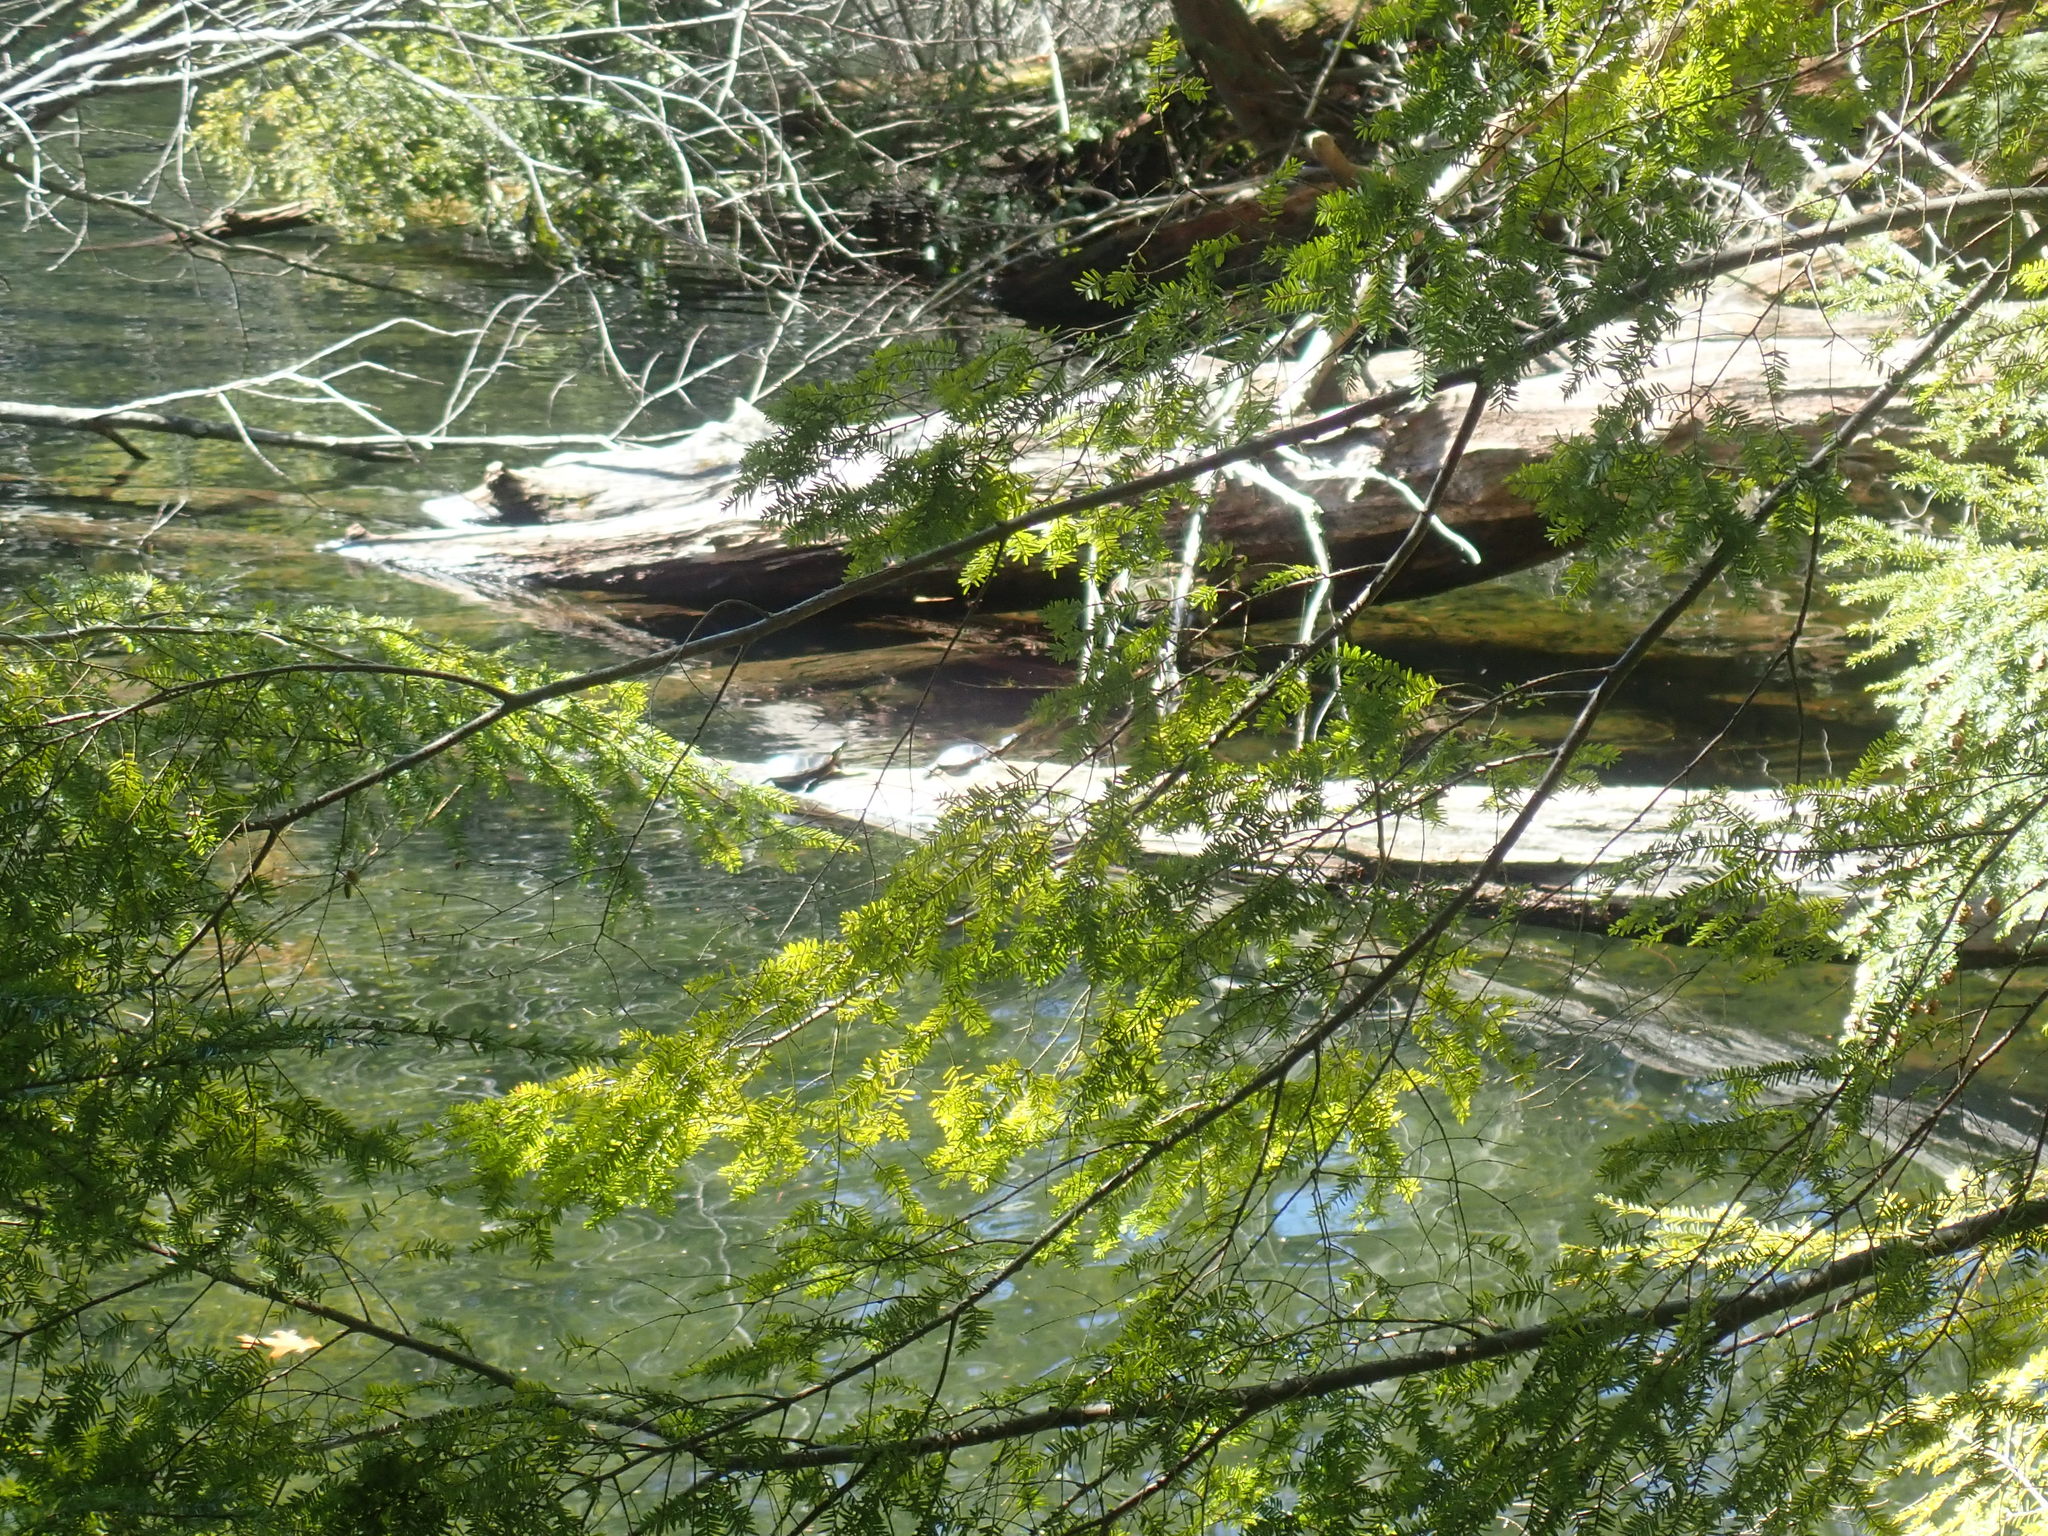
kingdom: Animalia
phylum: Chordata
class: Testudines
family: Emydidae
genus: Chrysemys
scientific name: Chrysemys picta
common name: Painted turtle
